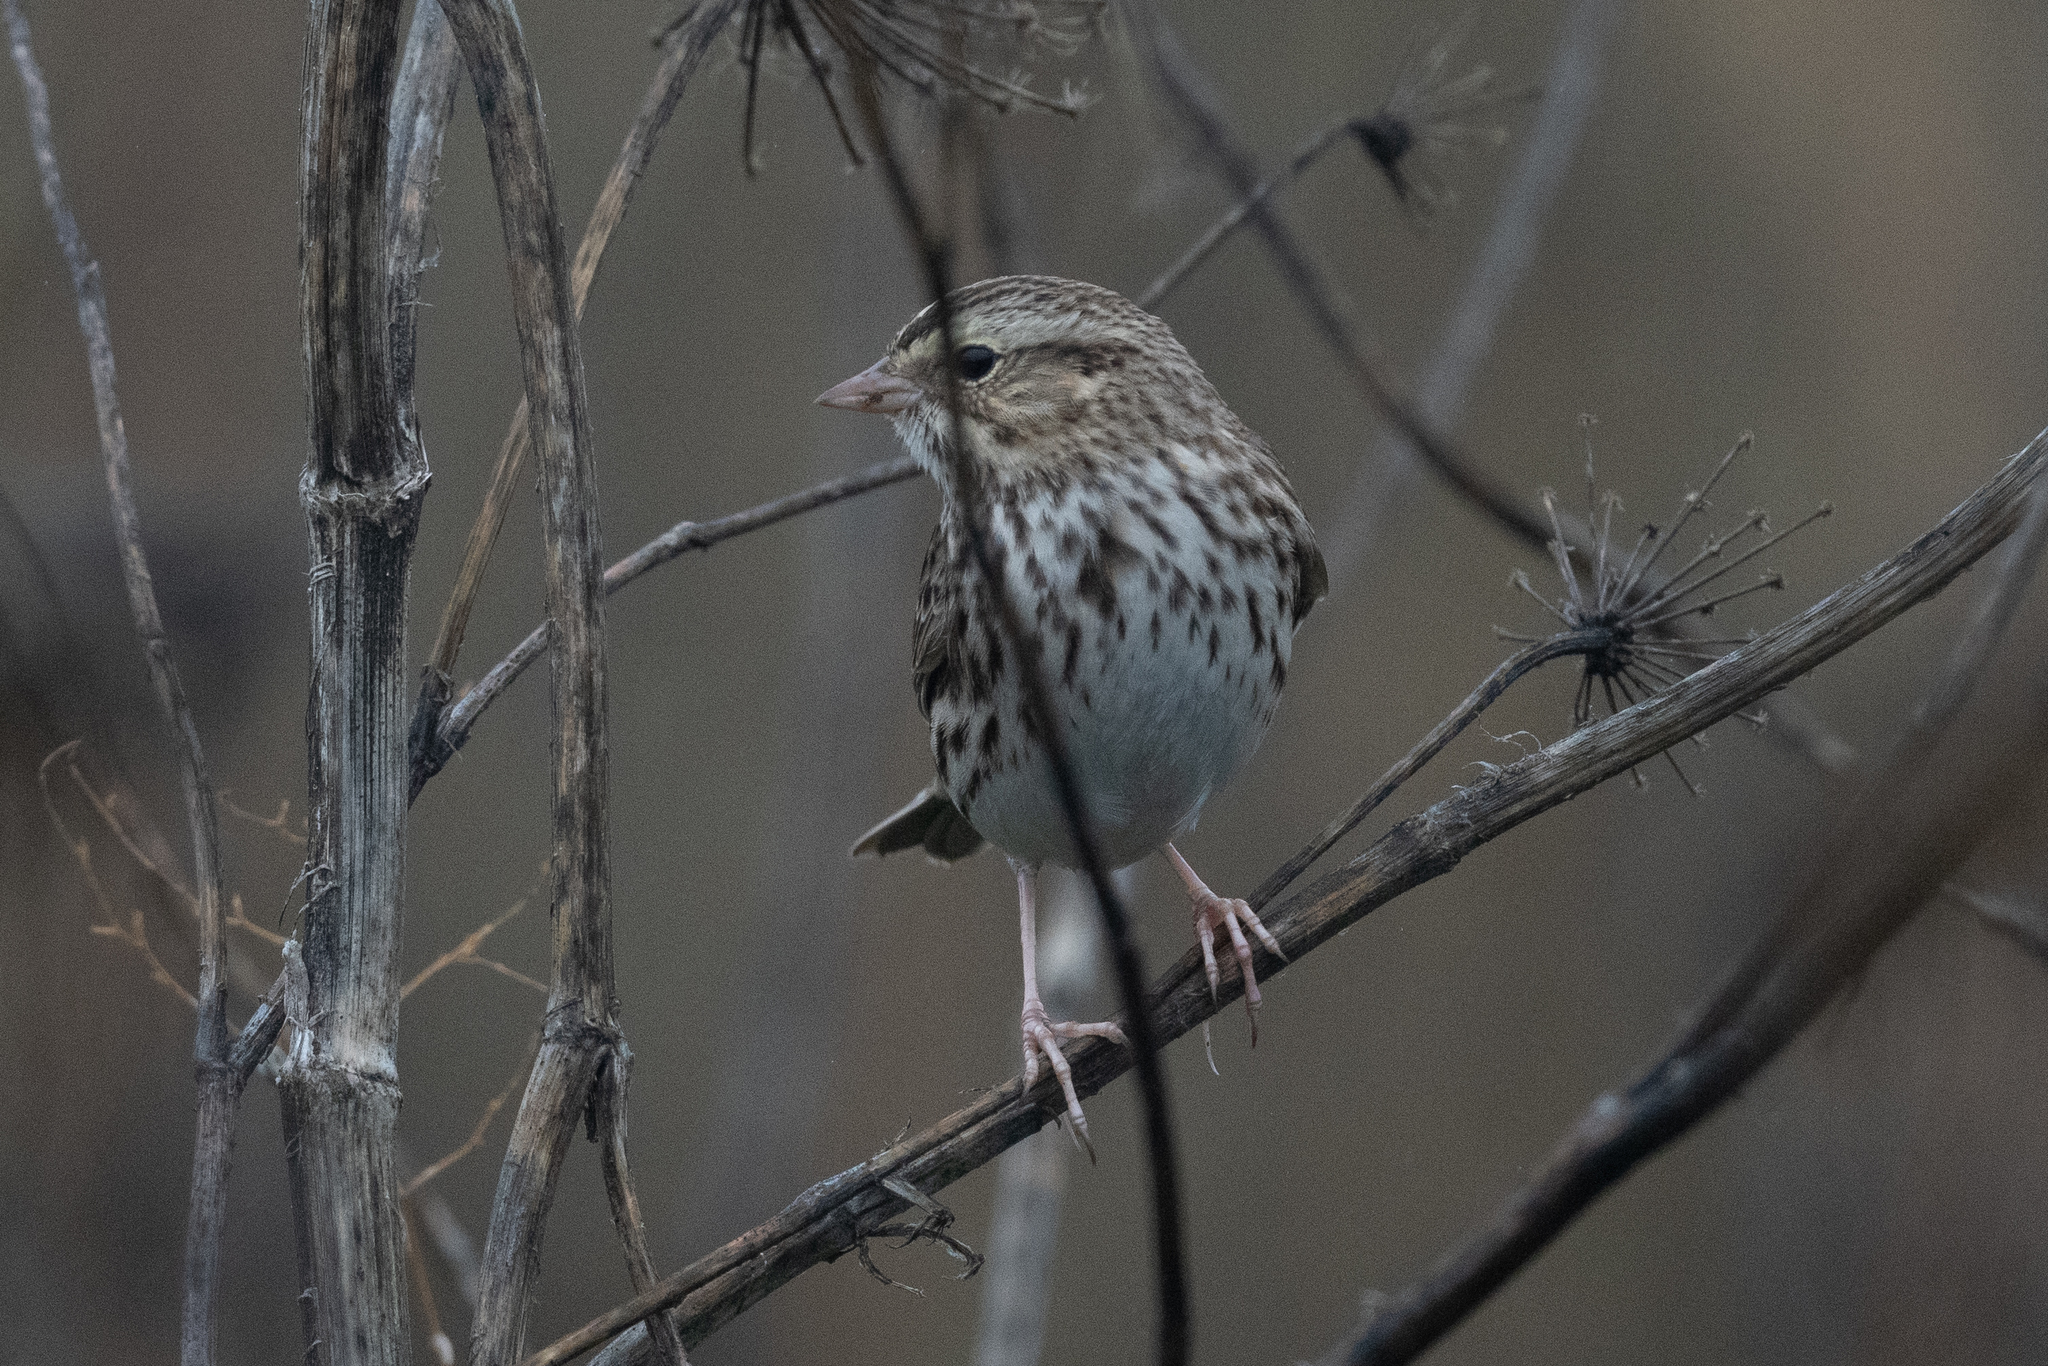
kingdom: Animalia
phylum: Chordata
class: Aves
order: Passeriformes
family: Passerellidae
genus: Passerculus
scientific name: Passerculus sandwichensis
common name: Savannah sparrow
